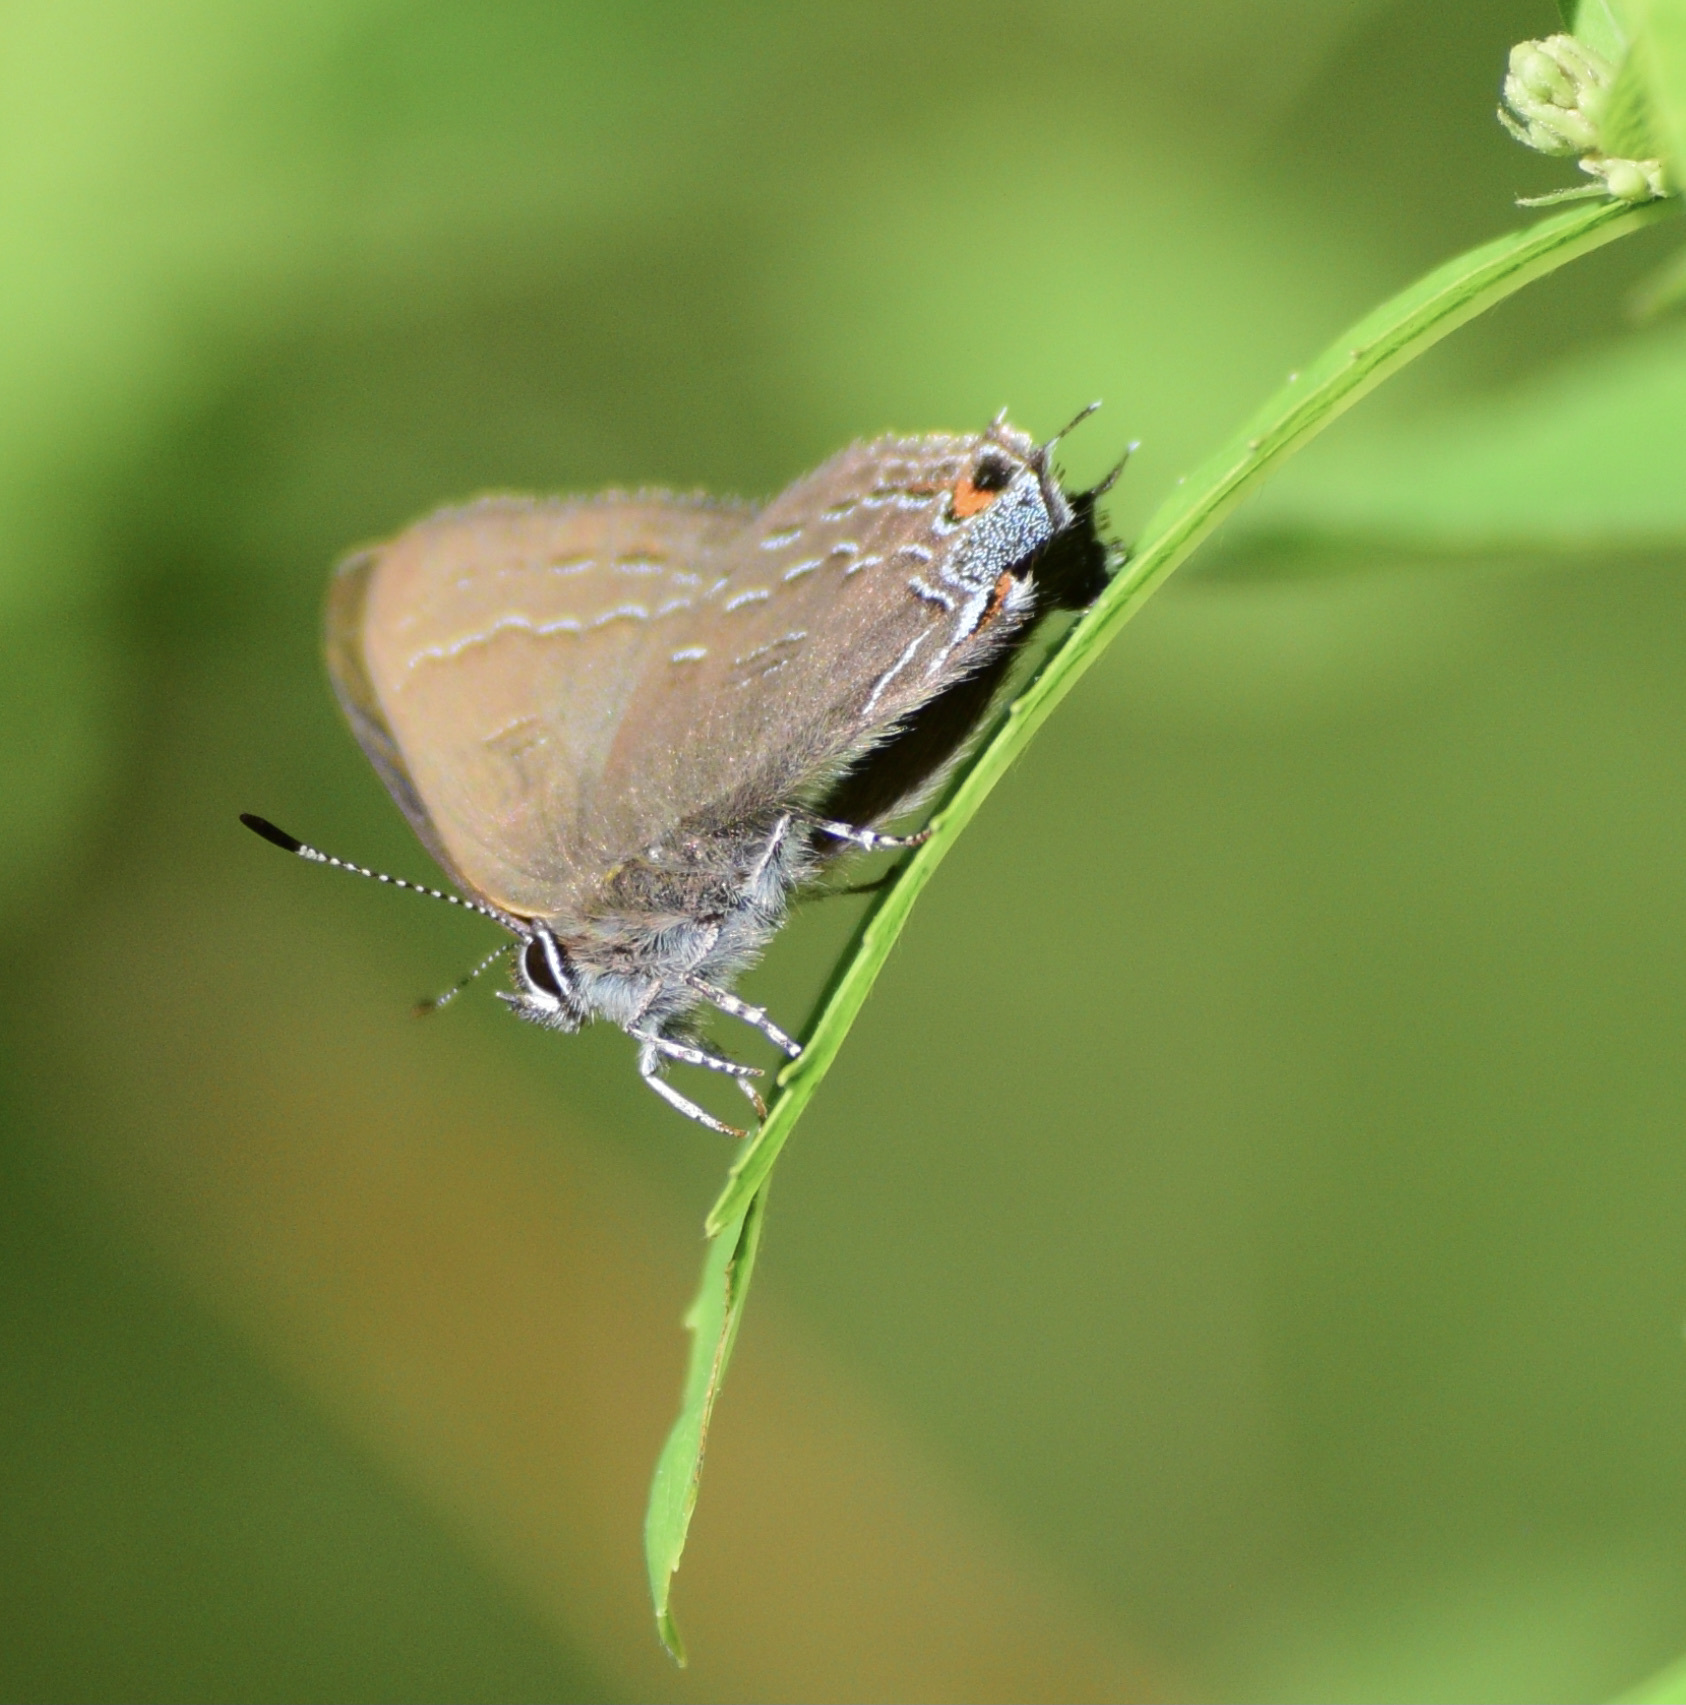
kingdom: Animalia
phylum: Arthropoda
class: Insecta
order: Lepidoptera
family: Lycaenidae
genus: Satyrium
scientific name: Satyrium calanus
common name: Banded hairstreak
